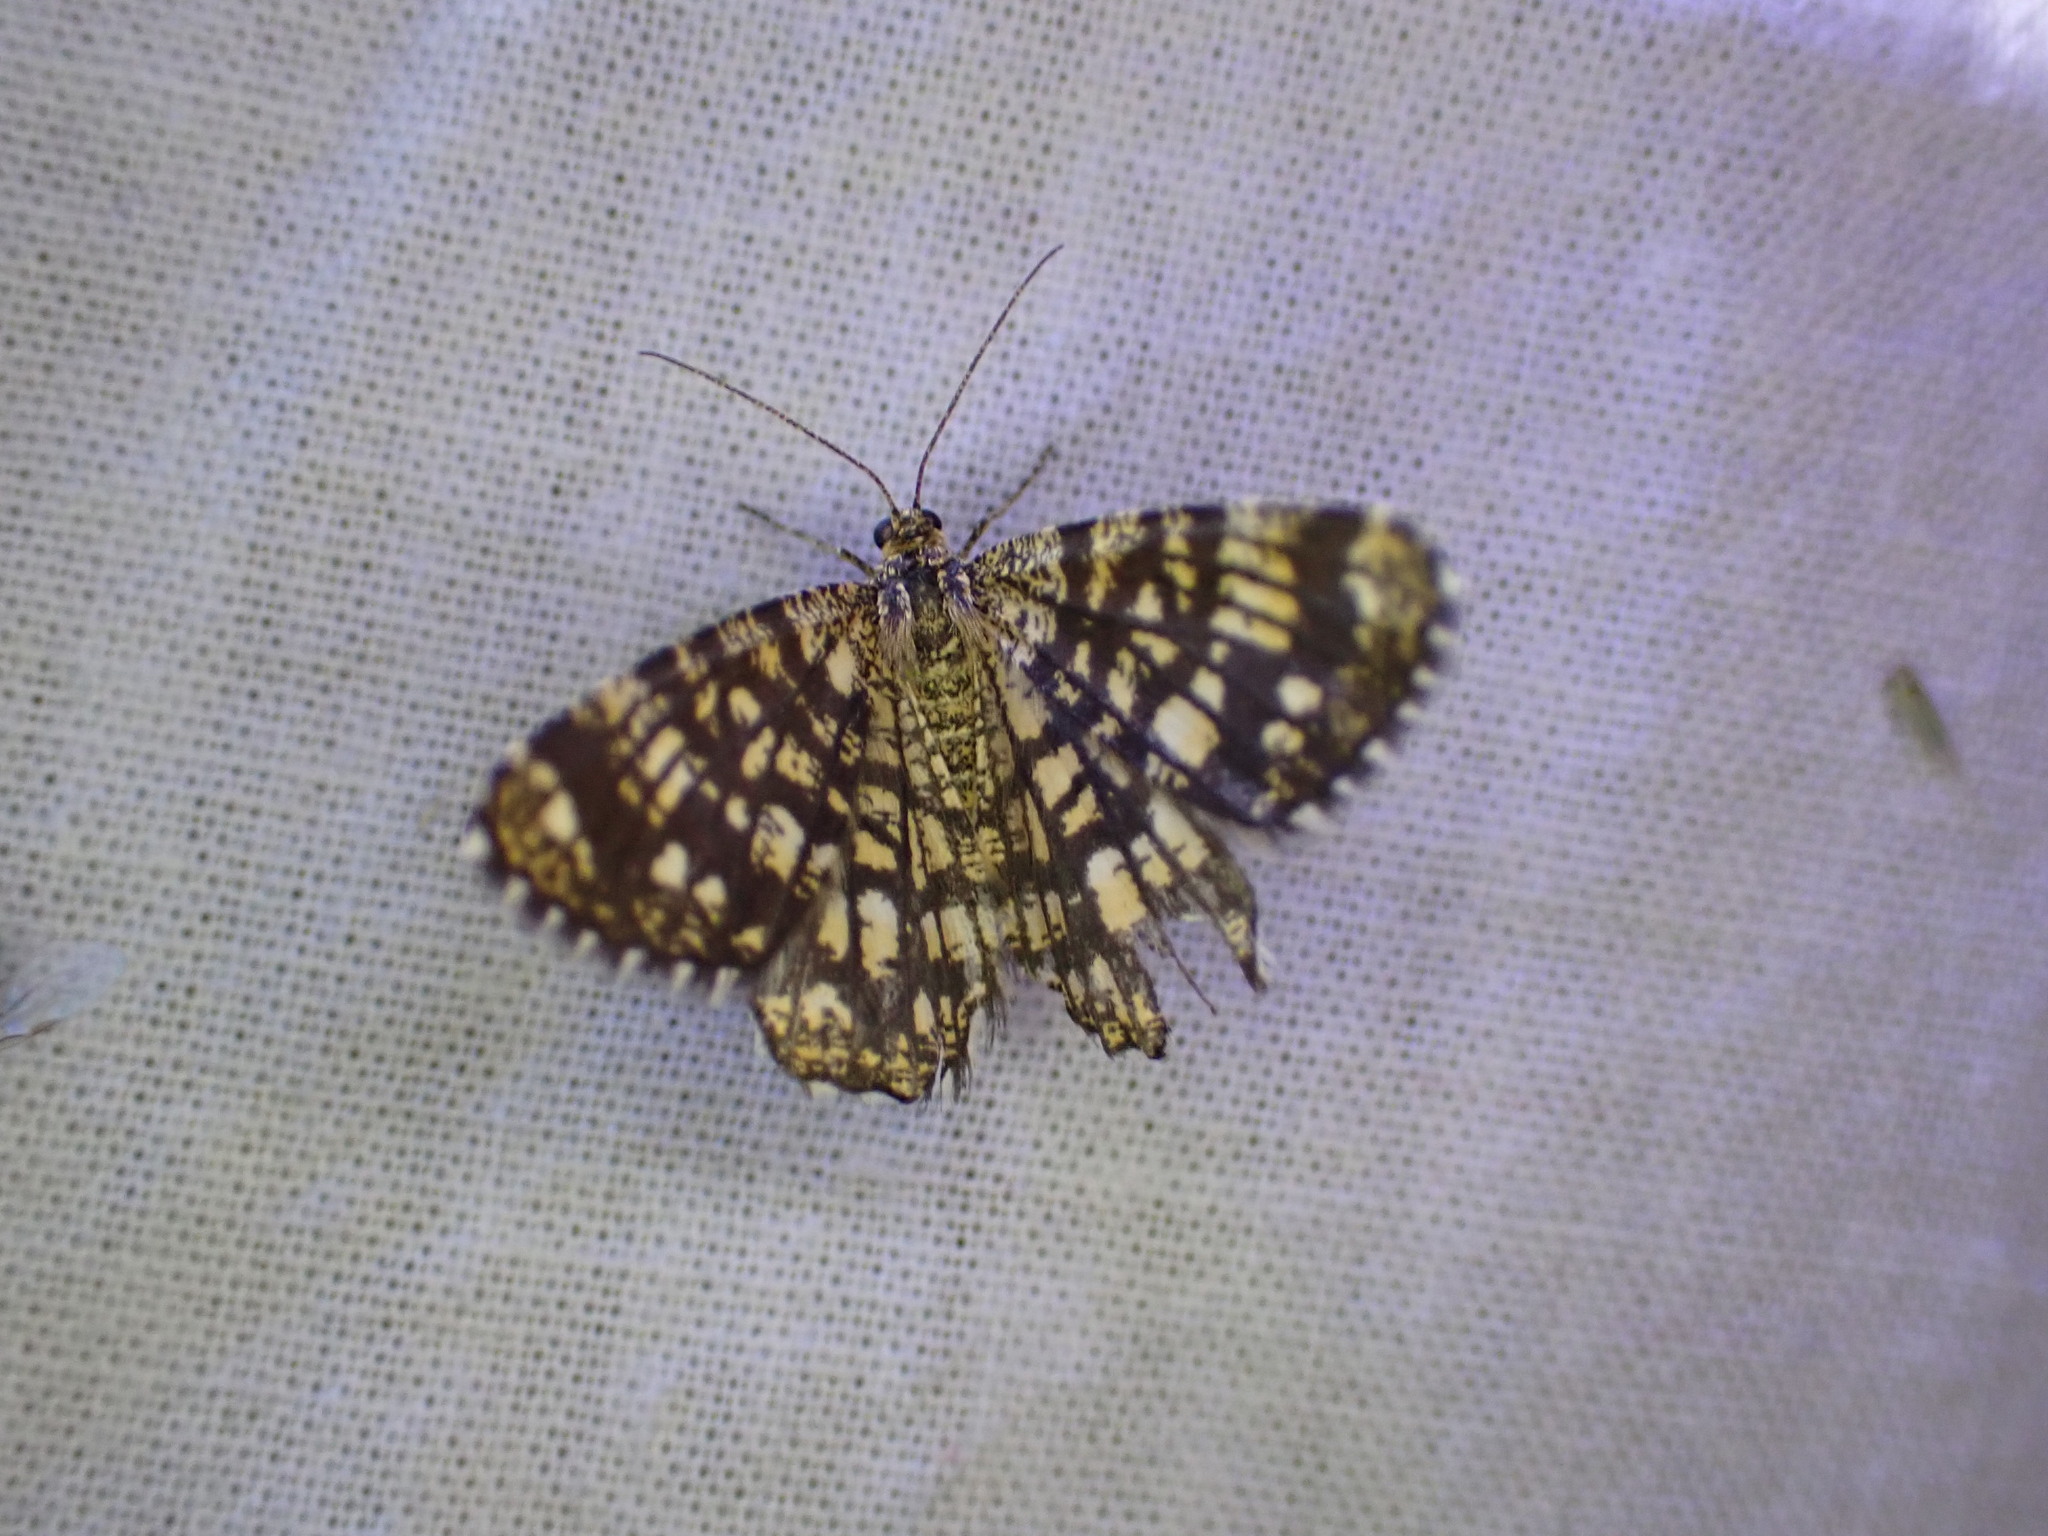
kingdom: Animalia
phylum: Arthropoda
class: Insecta
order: Lepidoptera
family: Geometridae
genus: Chiasmia
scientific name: Chiasmia clathrata
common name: Latticed heath
